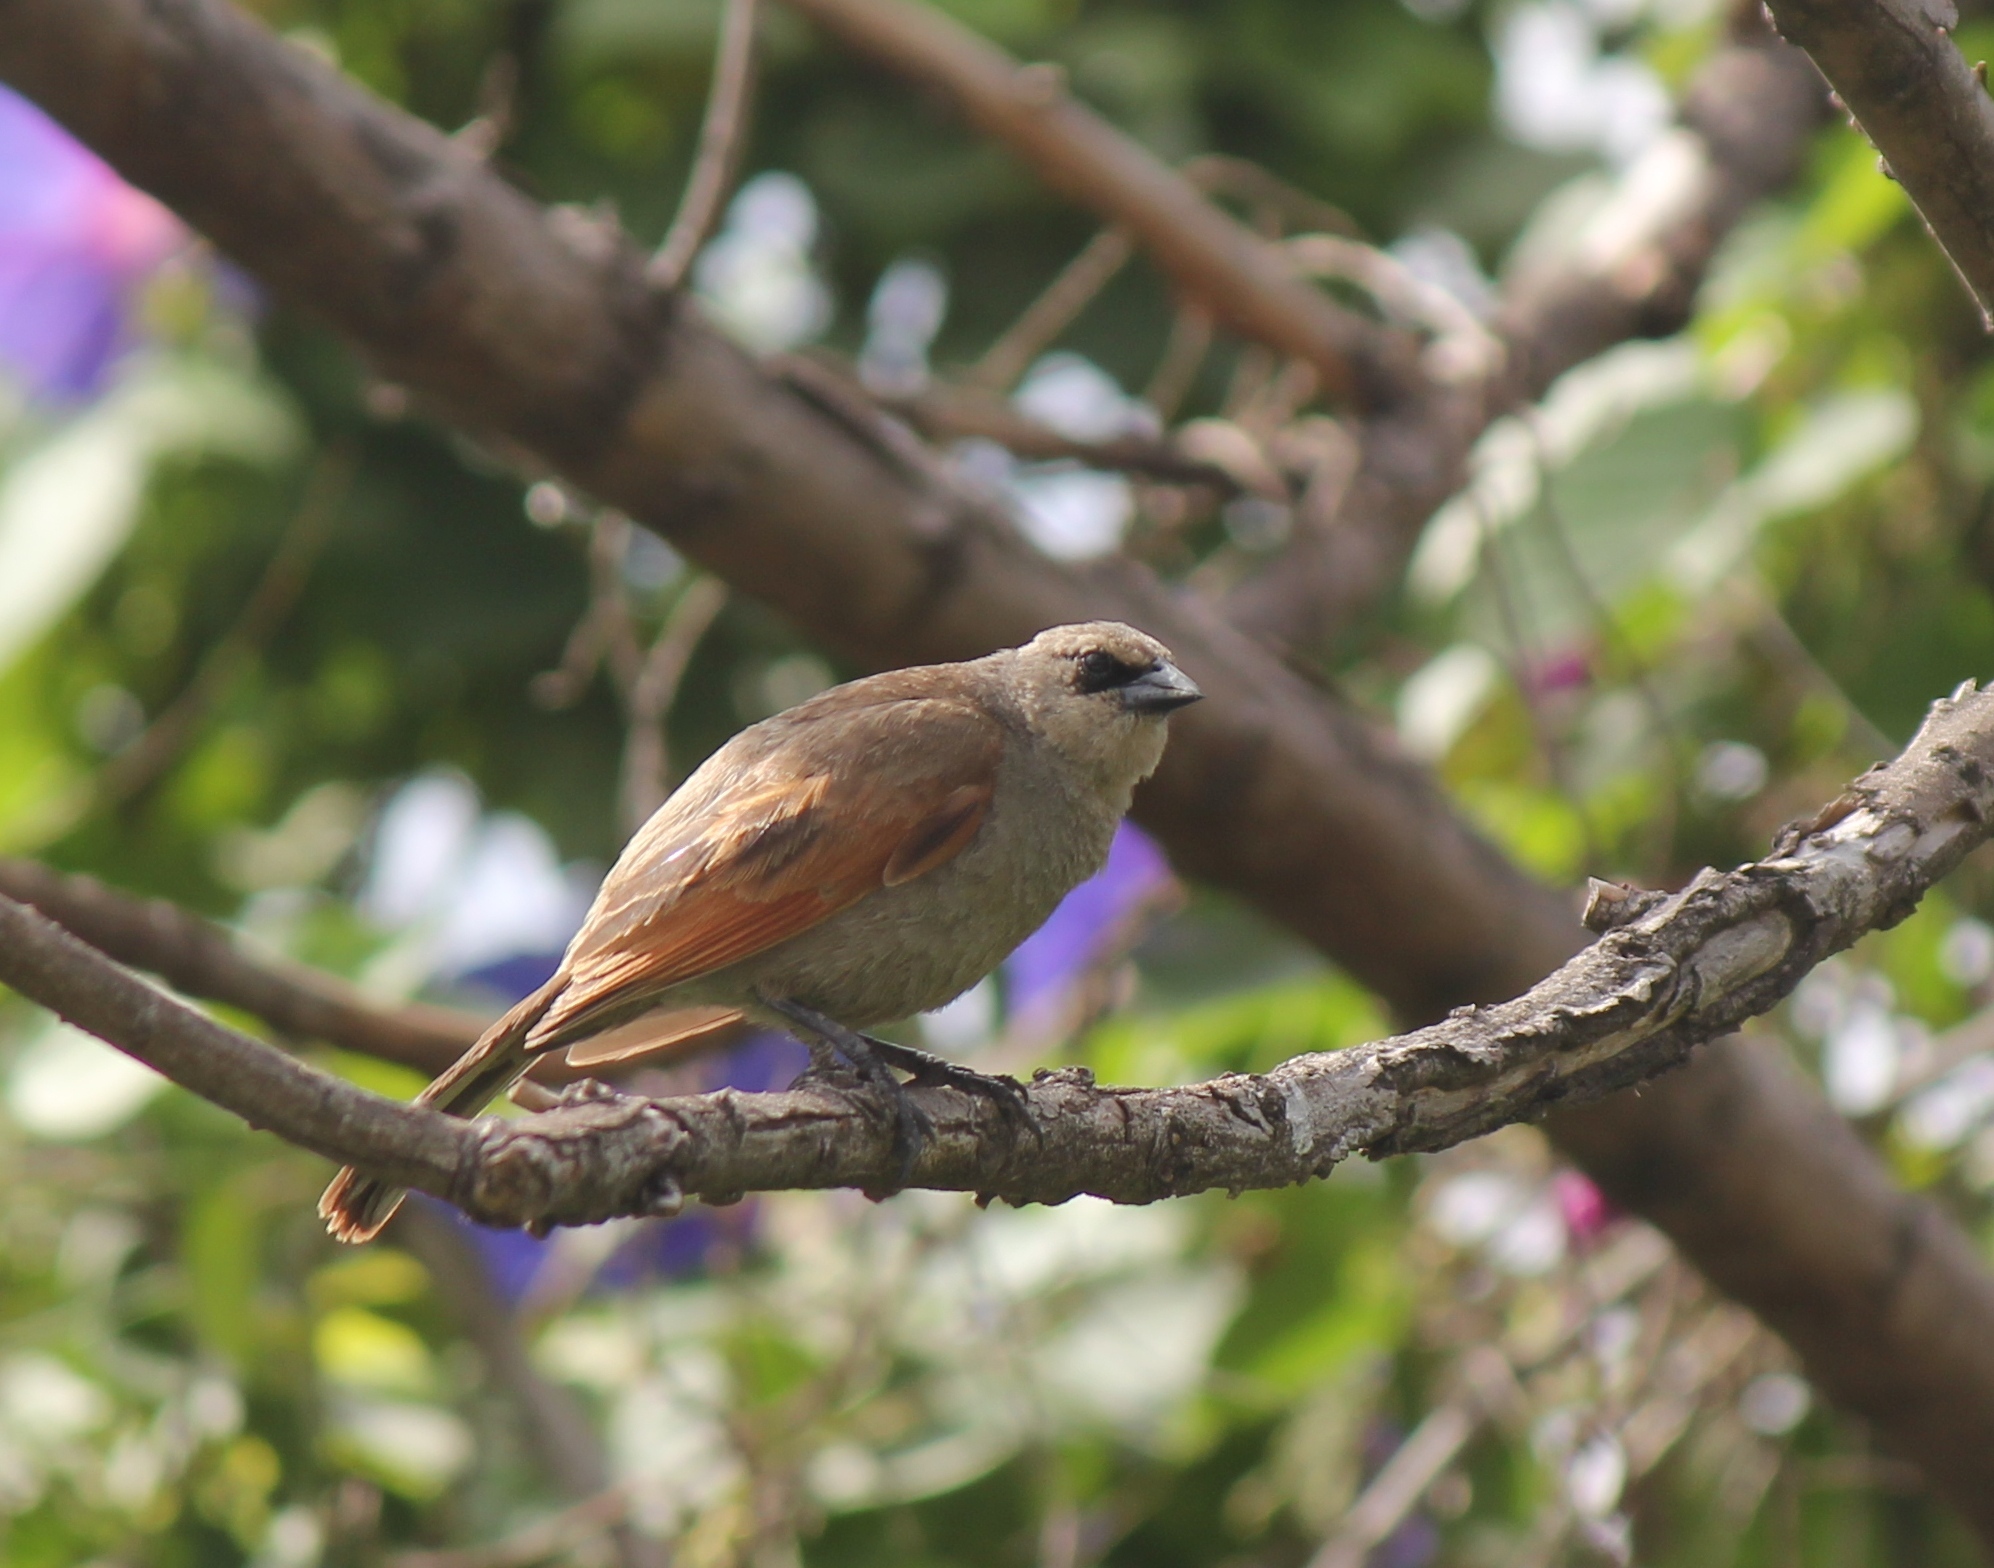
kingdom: Animalia
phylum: Chordata
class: Aves
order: Passeriformes
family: Icteridae
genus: Agelaioides
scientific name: Agelaioides badius
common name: Baywing
